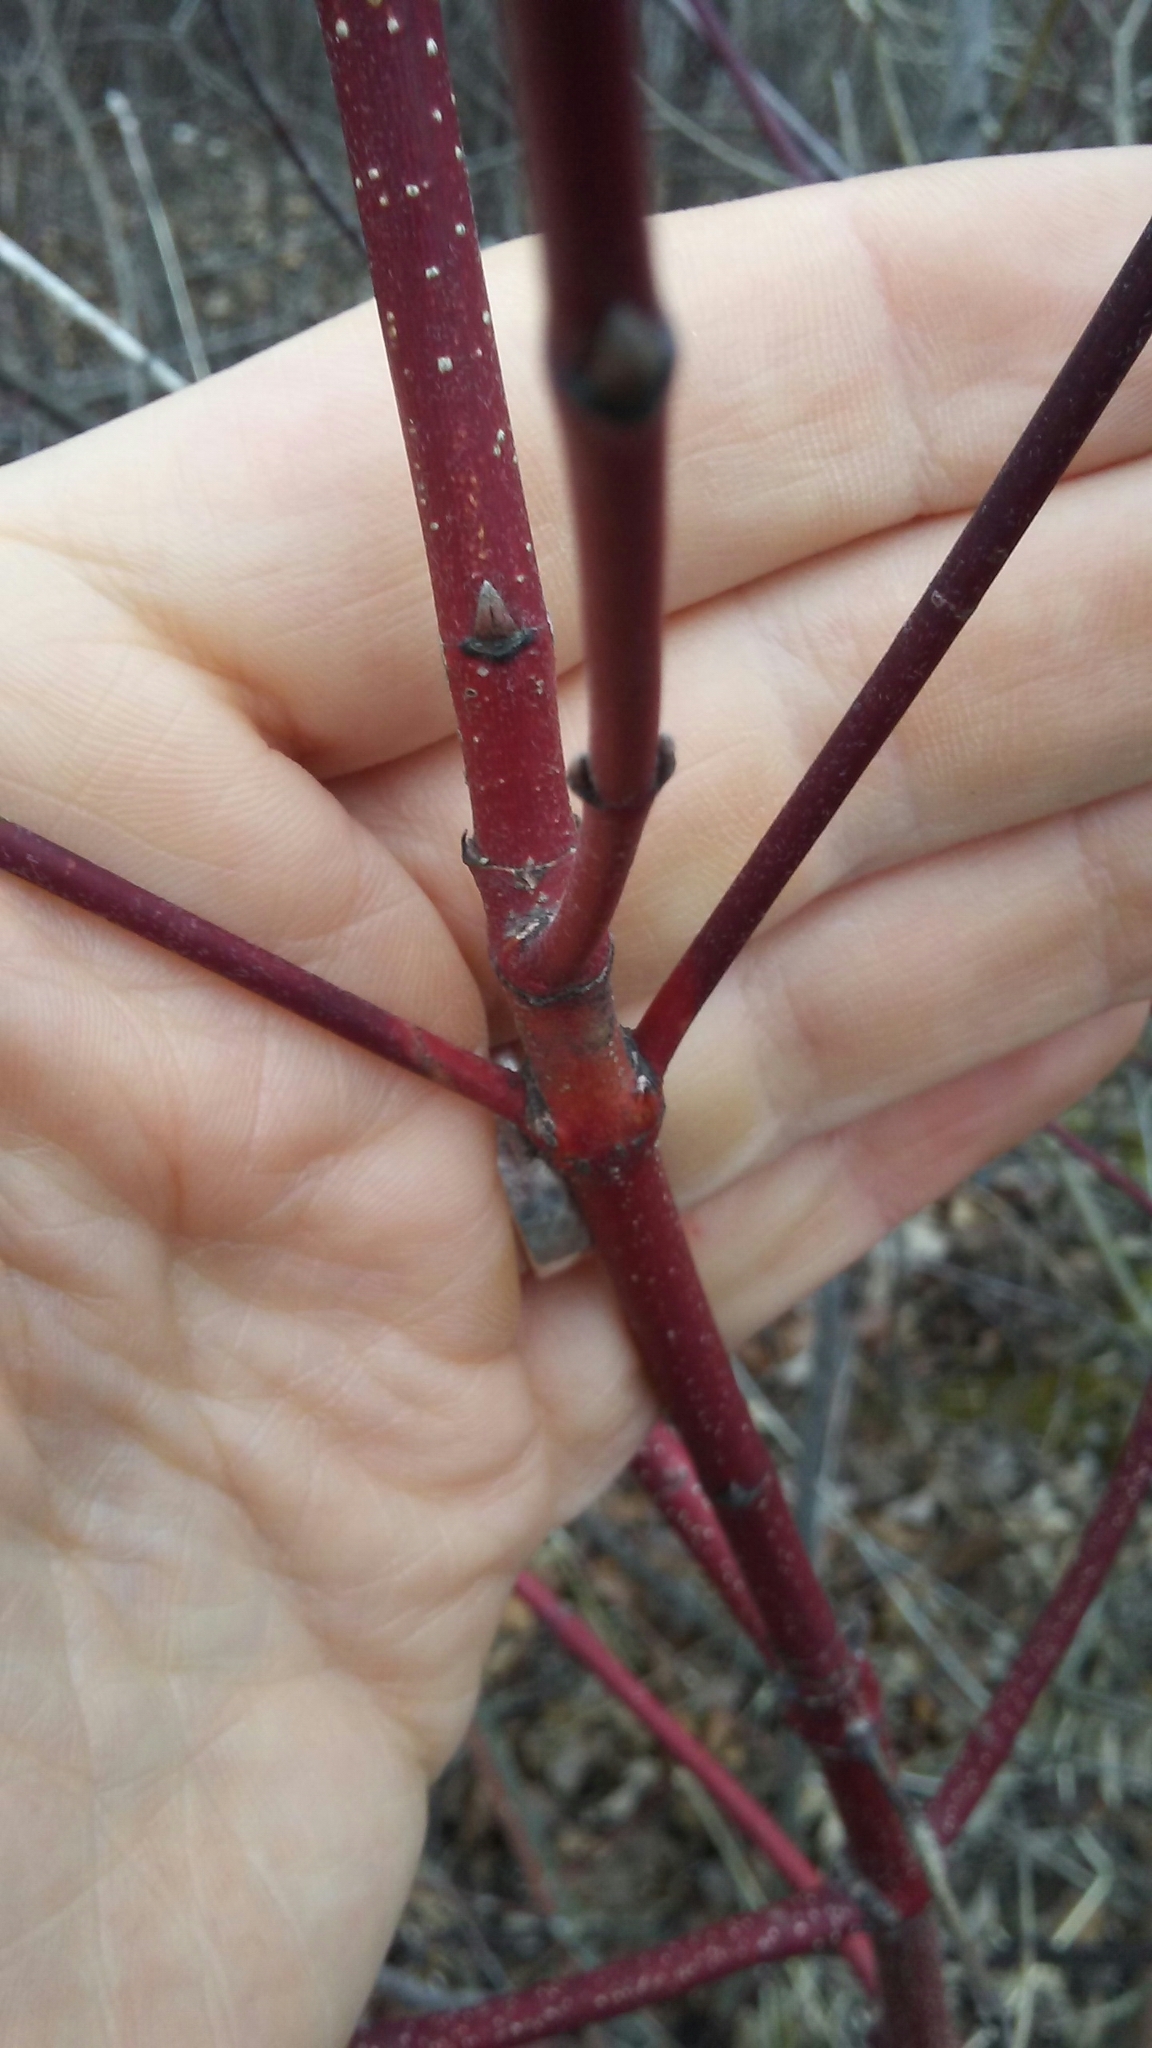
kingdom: Plantae
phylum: Tracheophyta
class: Magnoliopsida
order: Cornales
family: Cornaceae
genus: Cornus
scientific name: Cornus sericea
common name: Red-osier dogwood
